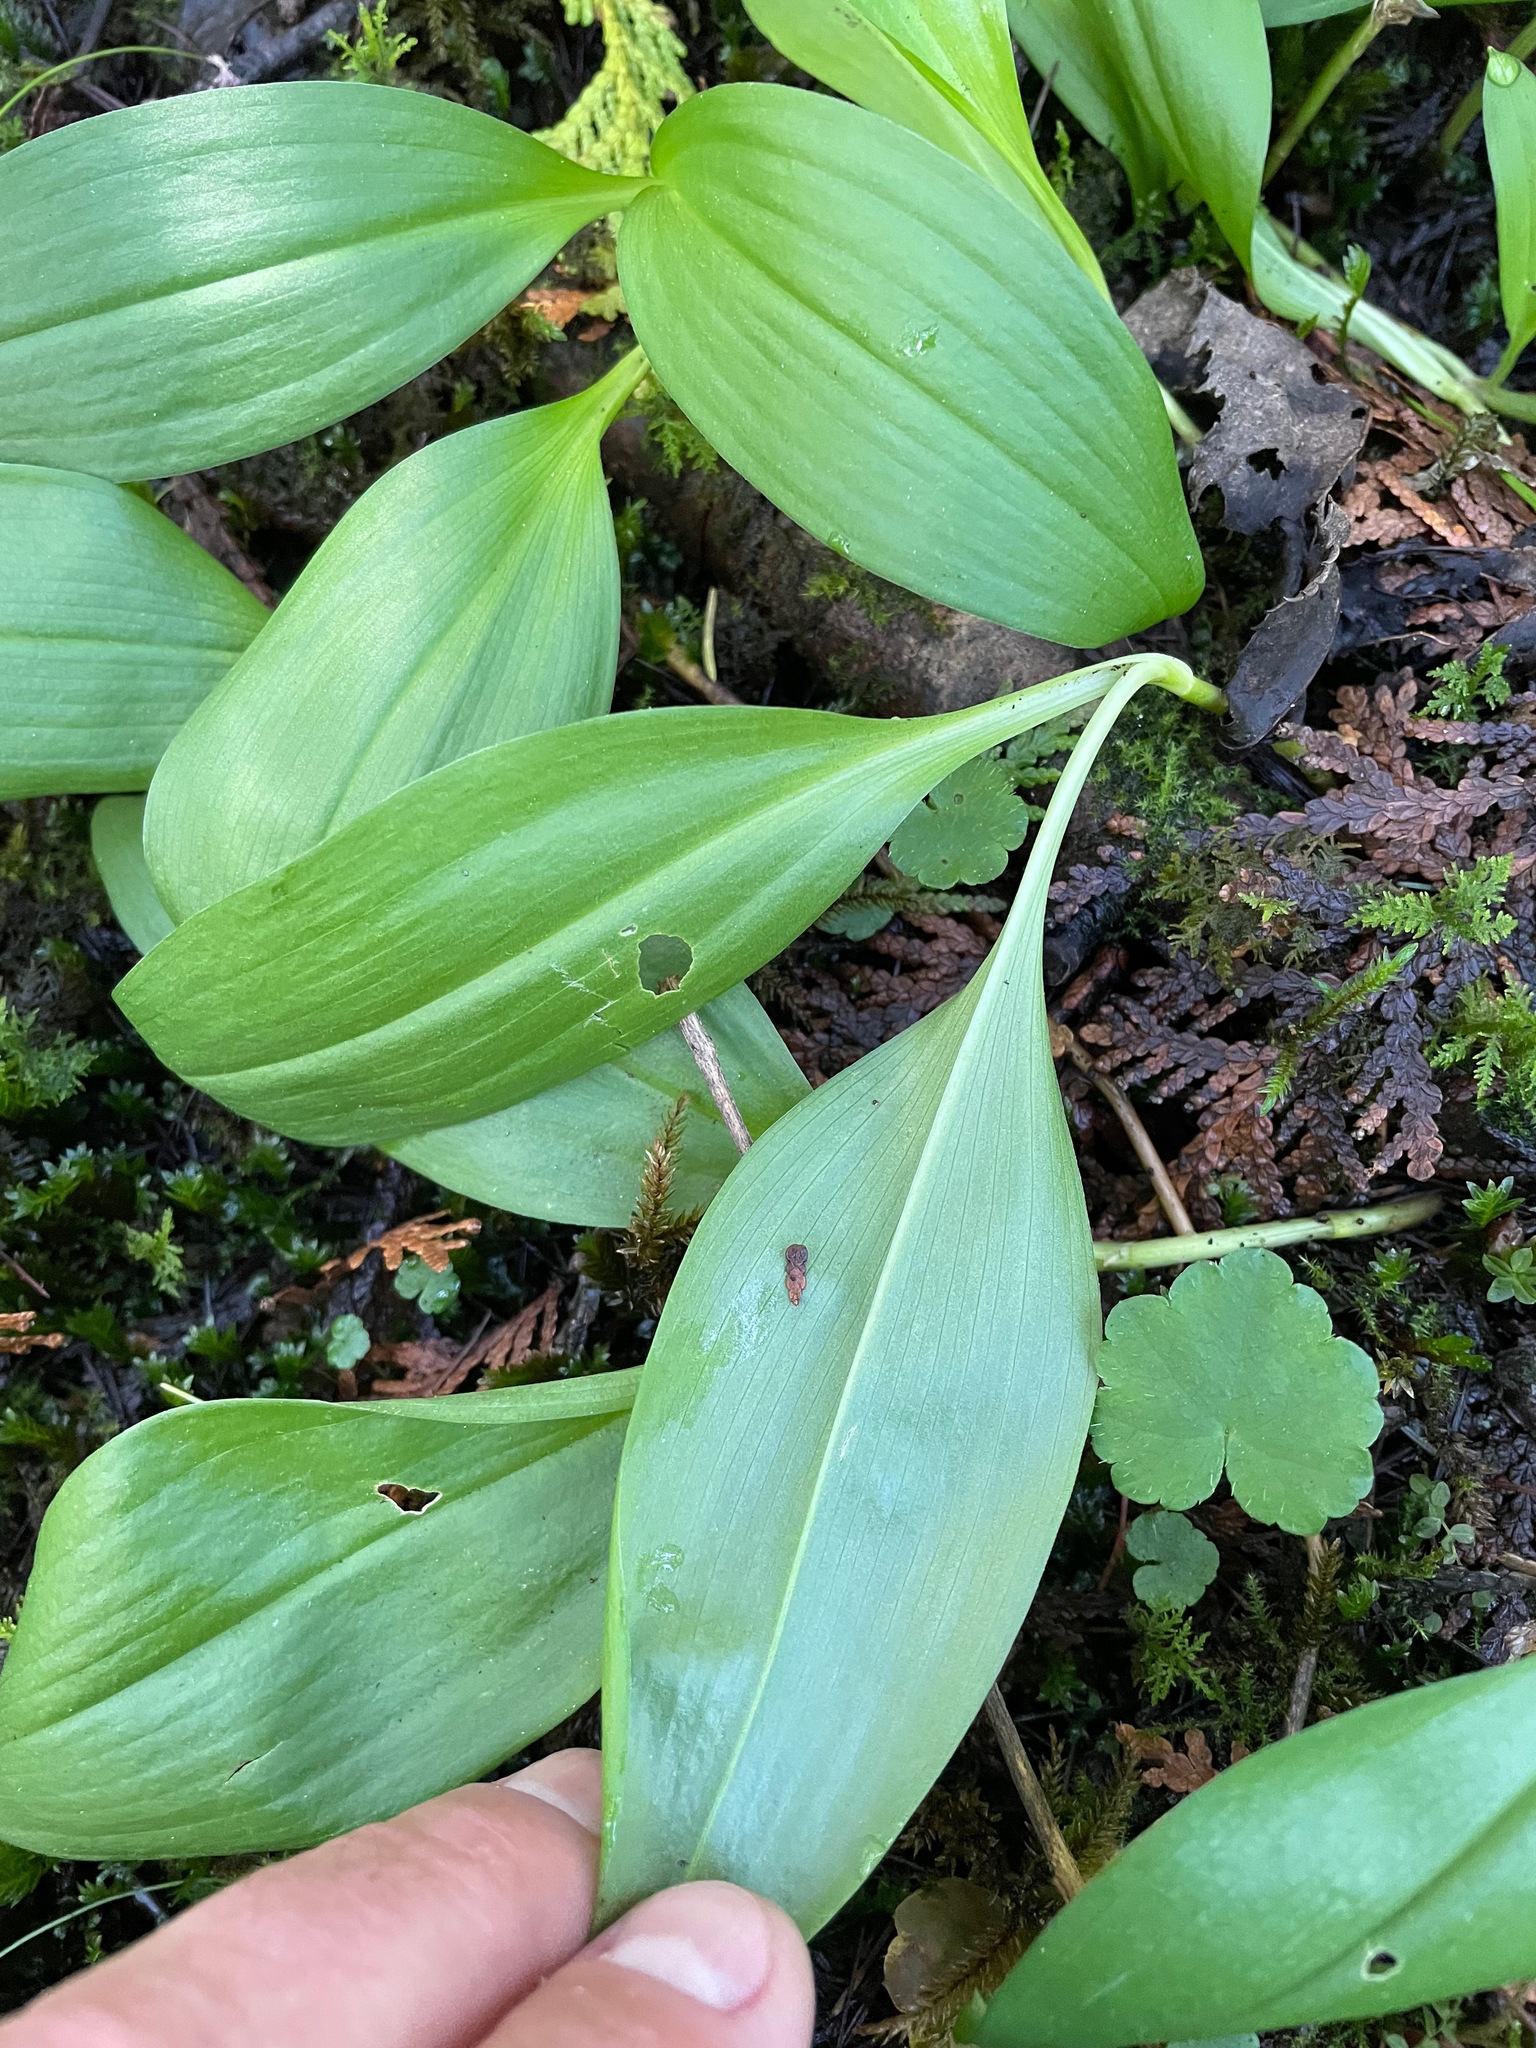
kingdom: Plantae
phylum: Tracheophyta
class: Liliopsida
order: Asparagales
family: Asparagaceae
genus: Maianthemum
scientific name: Maianthemum trifolium
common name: Swamp false solomon's seal
